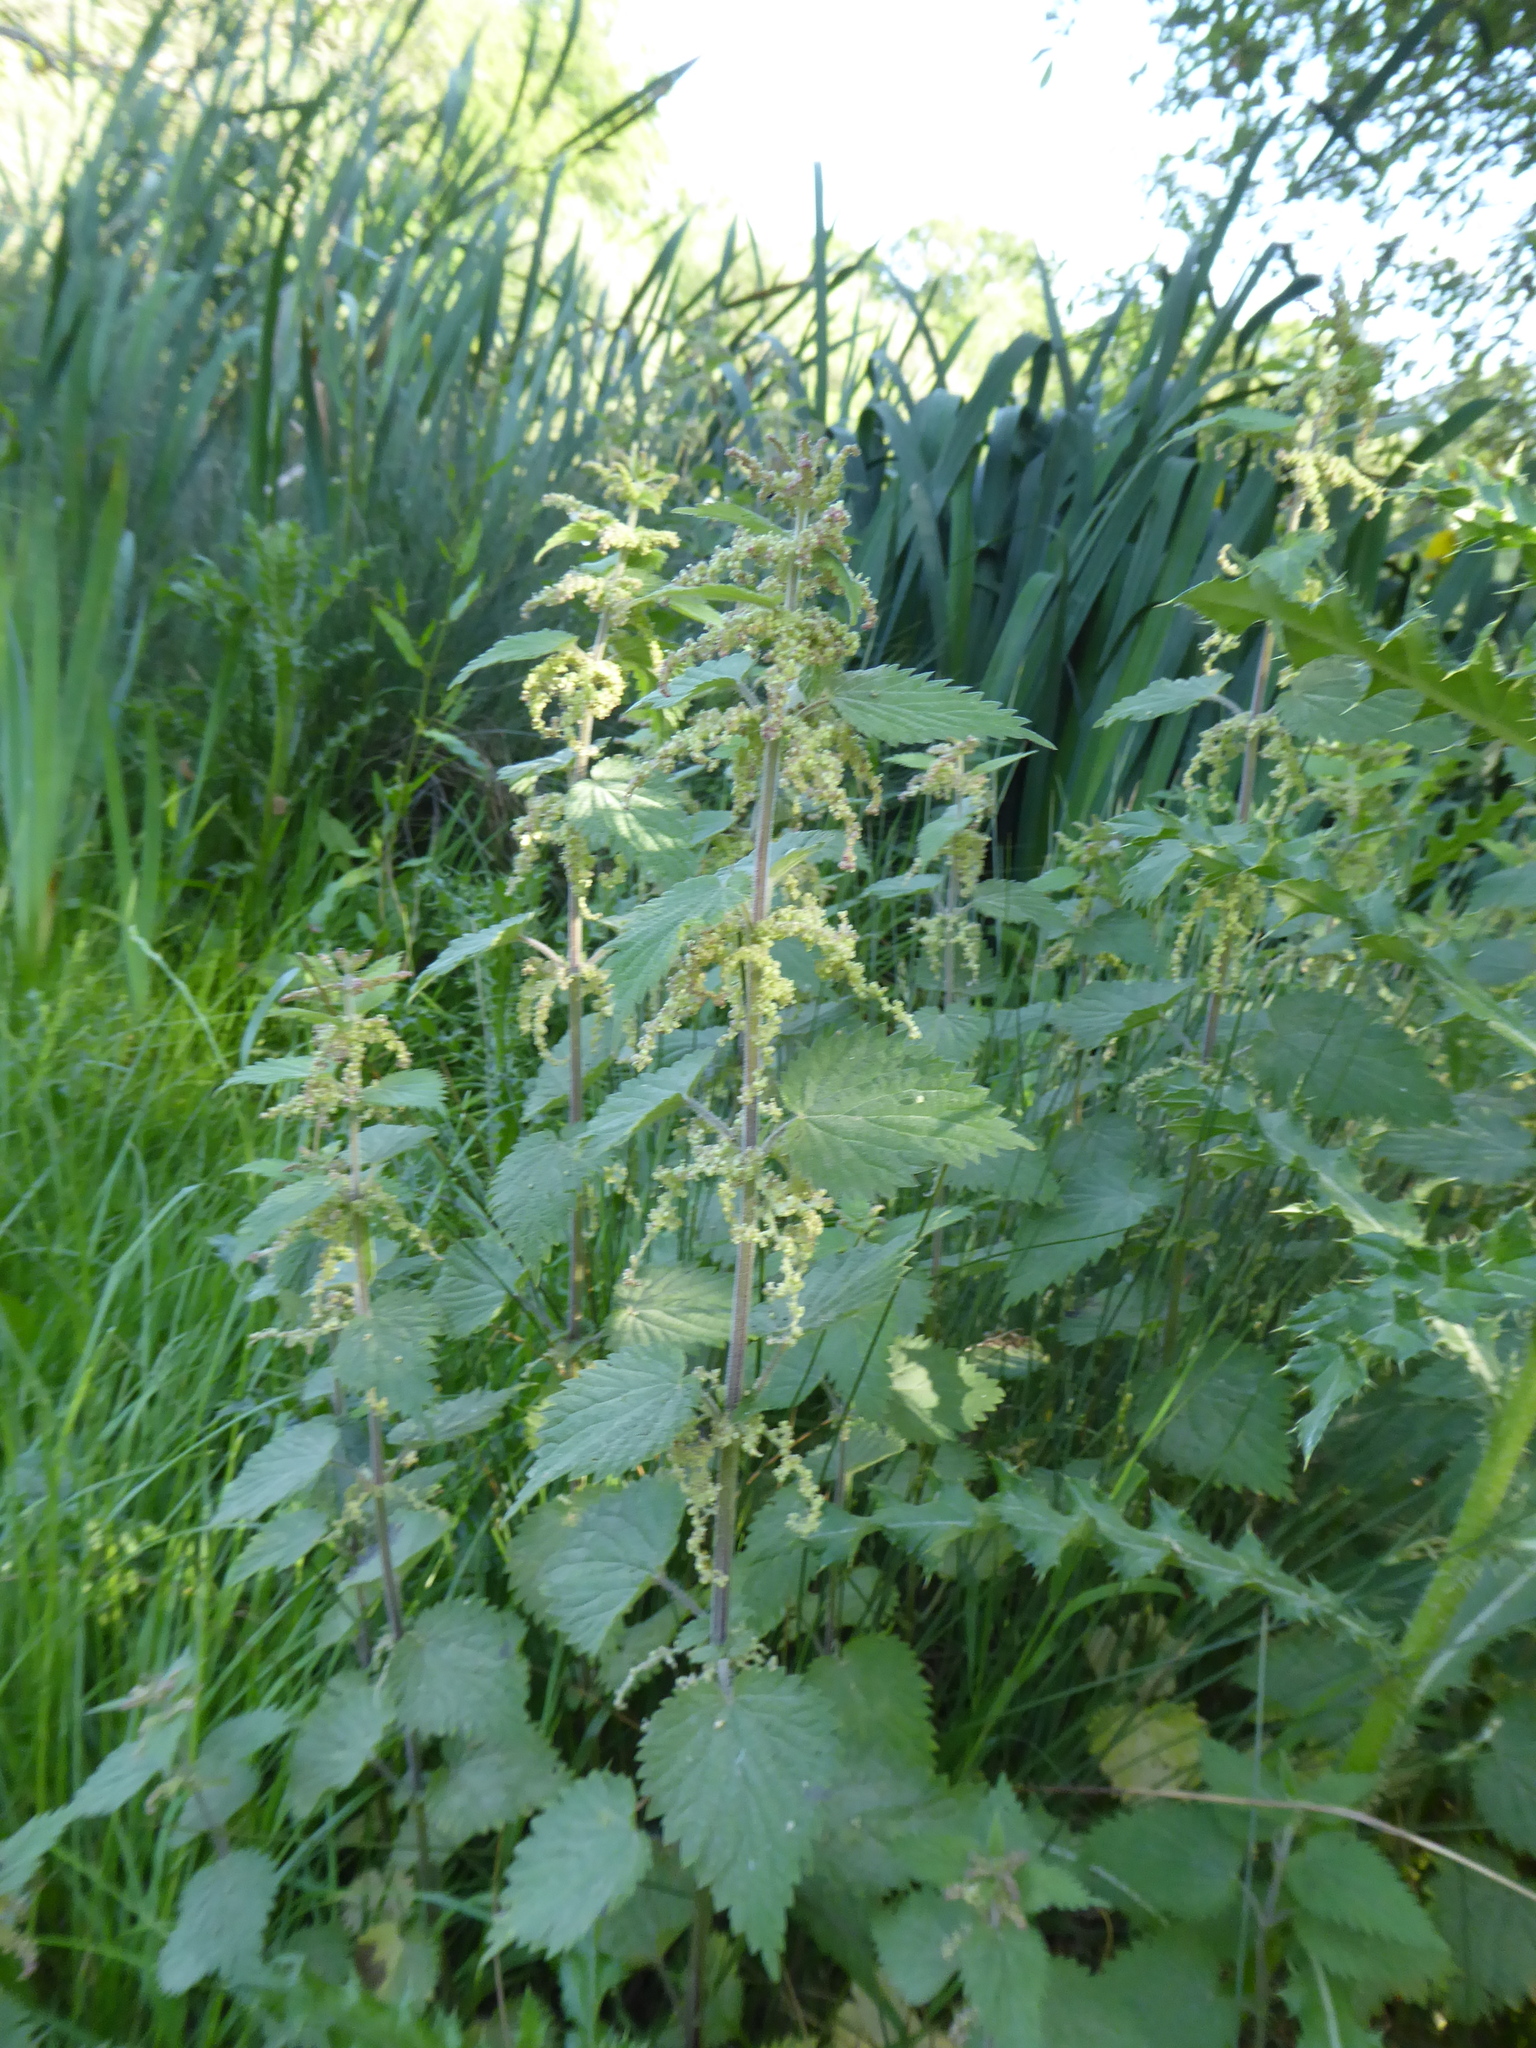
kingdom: Plantae
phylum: Tracheophyta
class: Magnoliopsida
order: Rosales
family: Urticaceae
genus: Urtica
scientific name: Urtica dioica
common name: Common nettle
